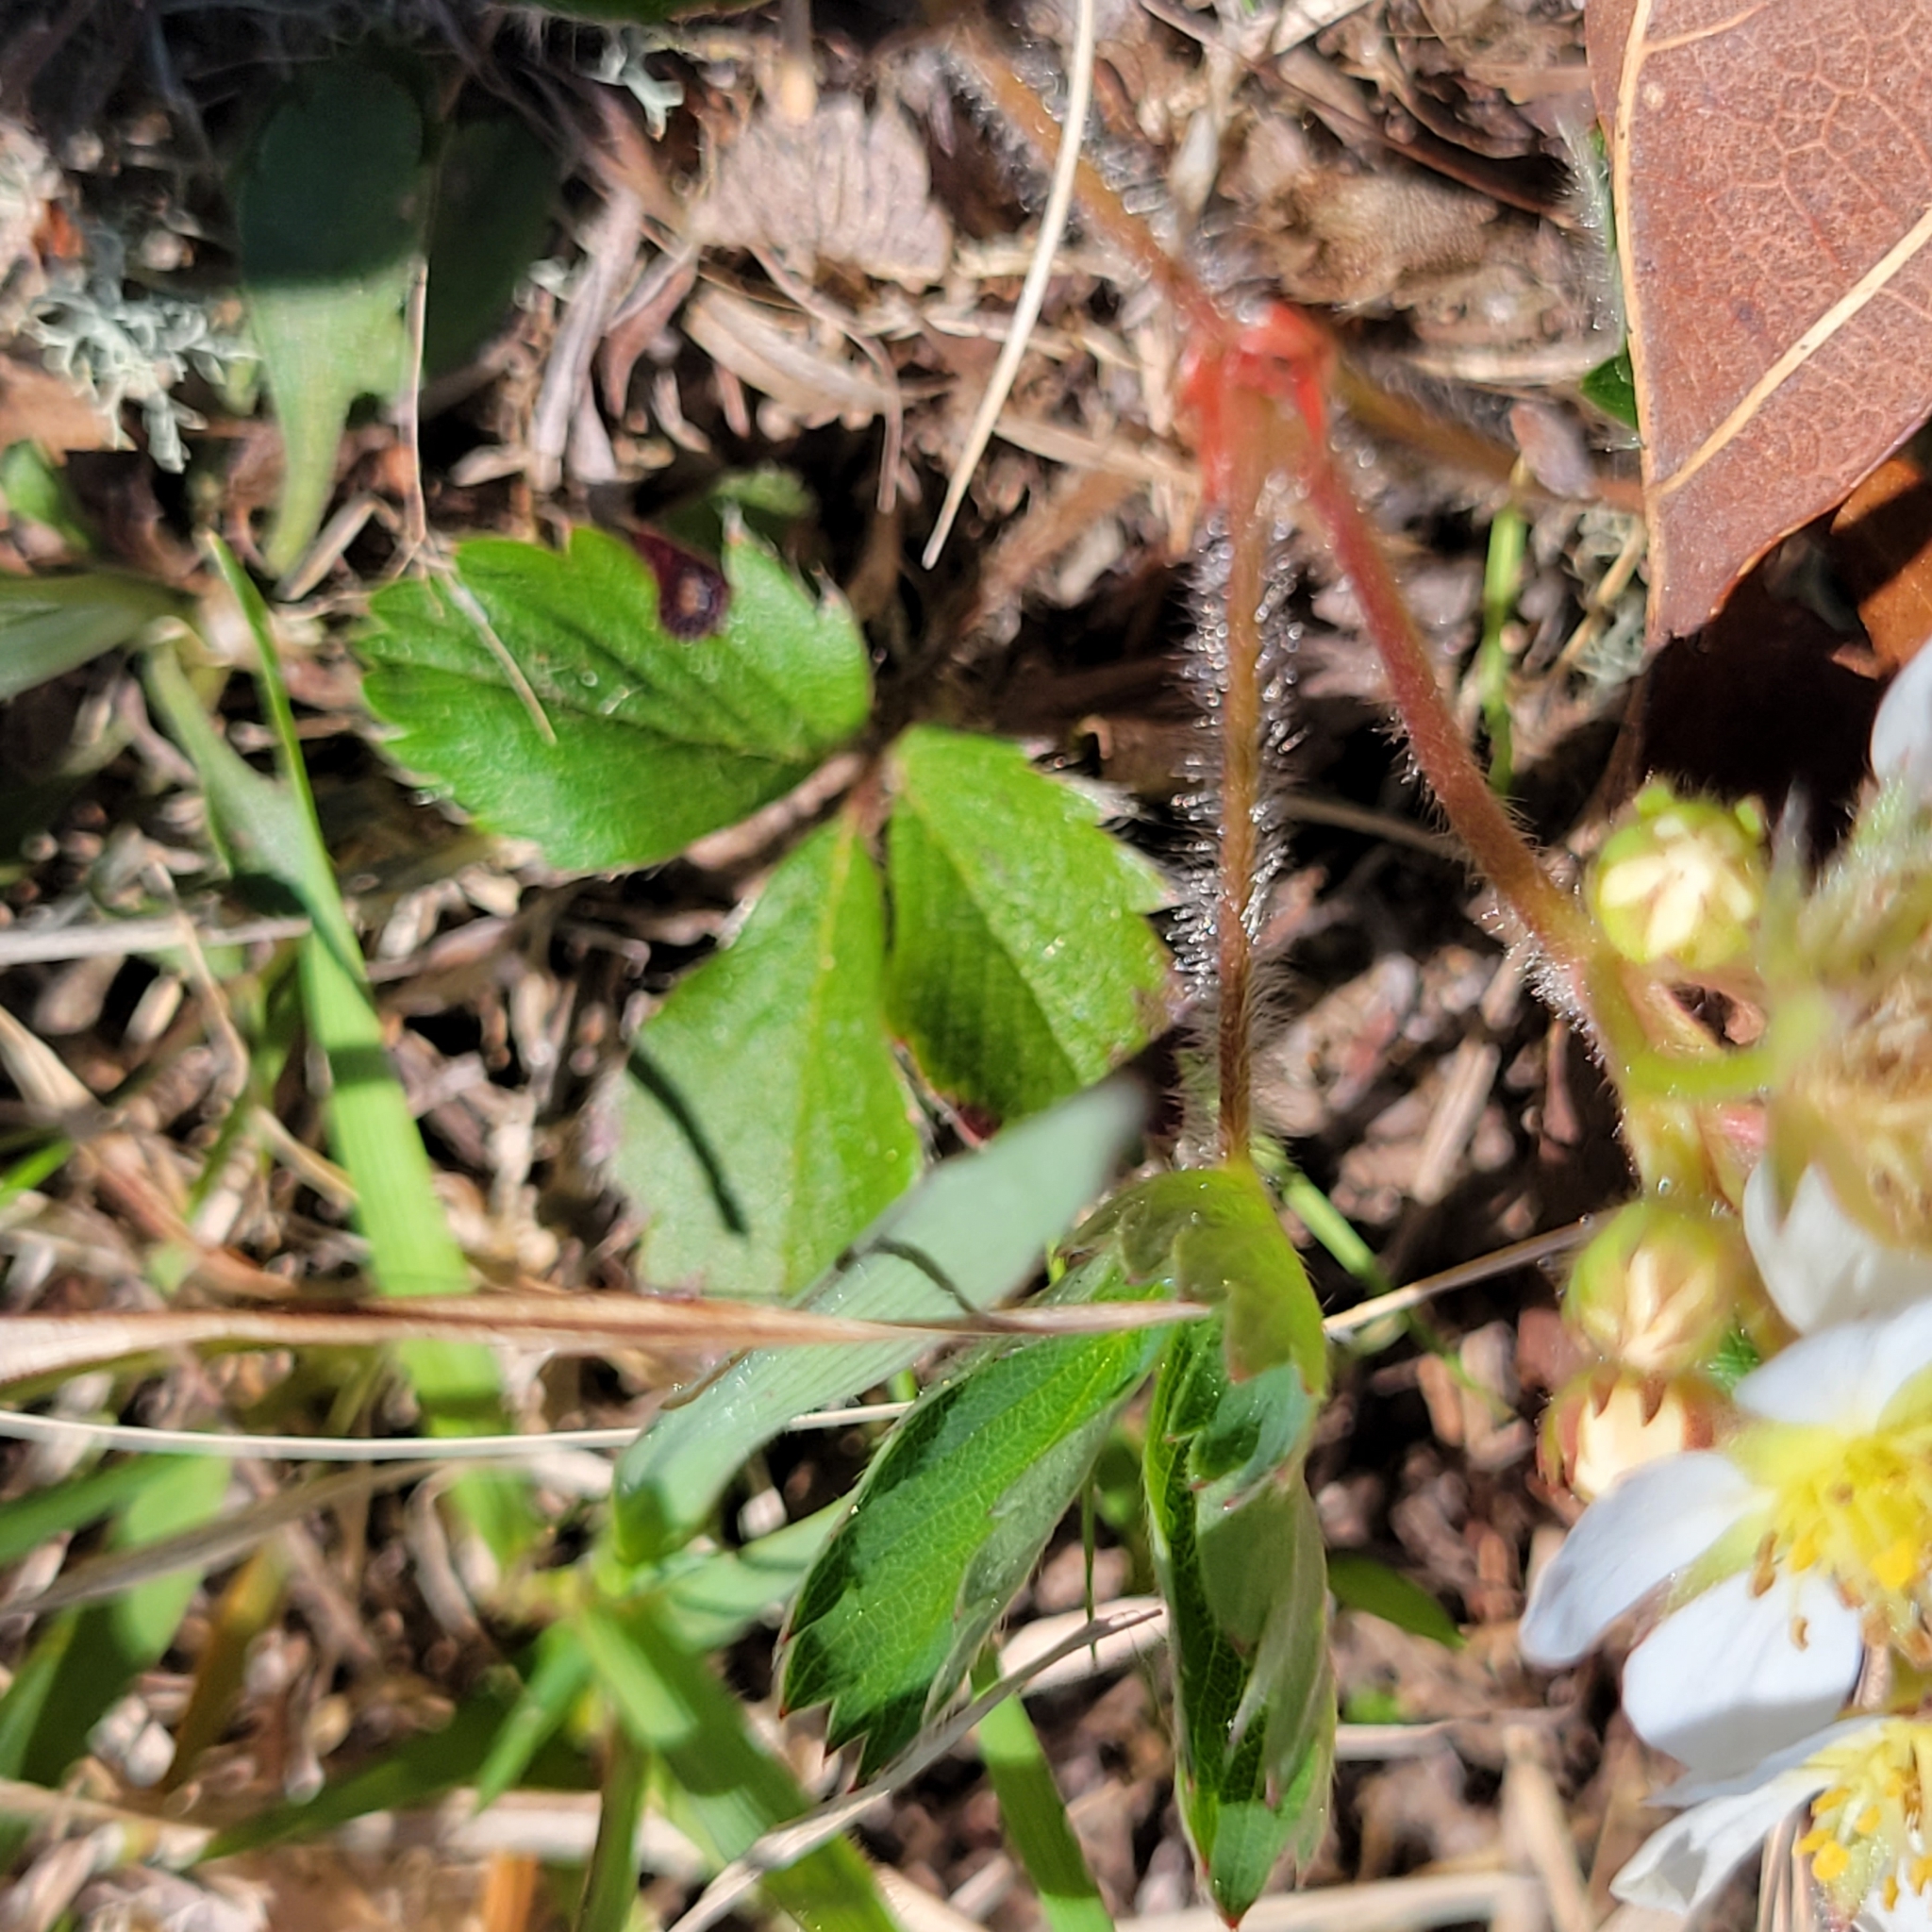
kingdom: Plantae
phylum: Tracheophyta
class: Magnoliopsida
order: Rosales
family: Rosaceae
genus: Fragaria
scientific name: Fragaria virginiana
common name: Thickleaved wild strawberry
